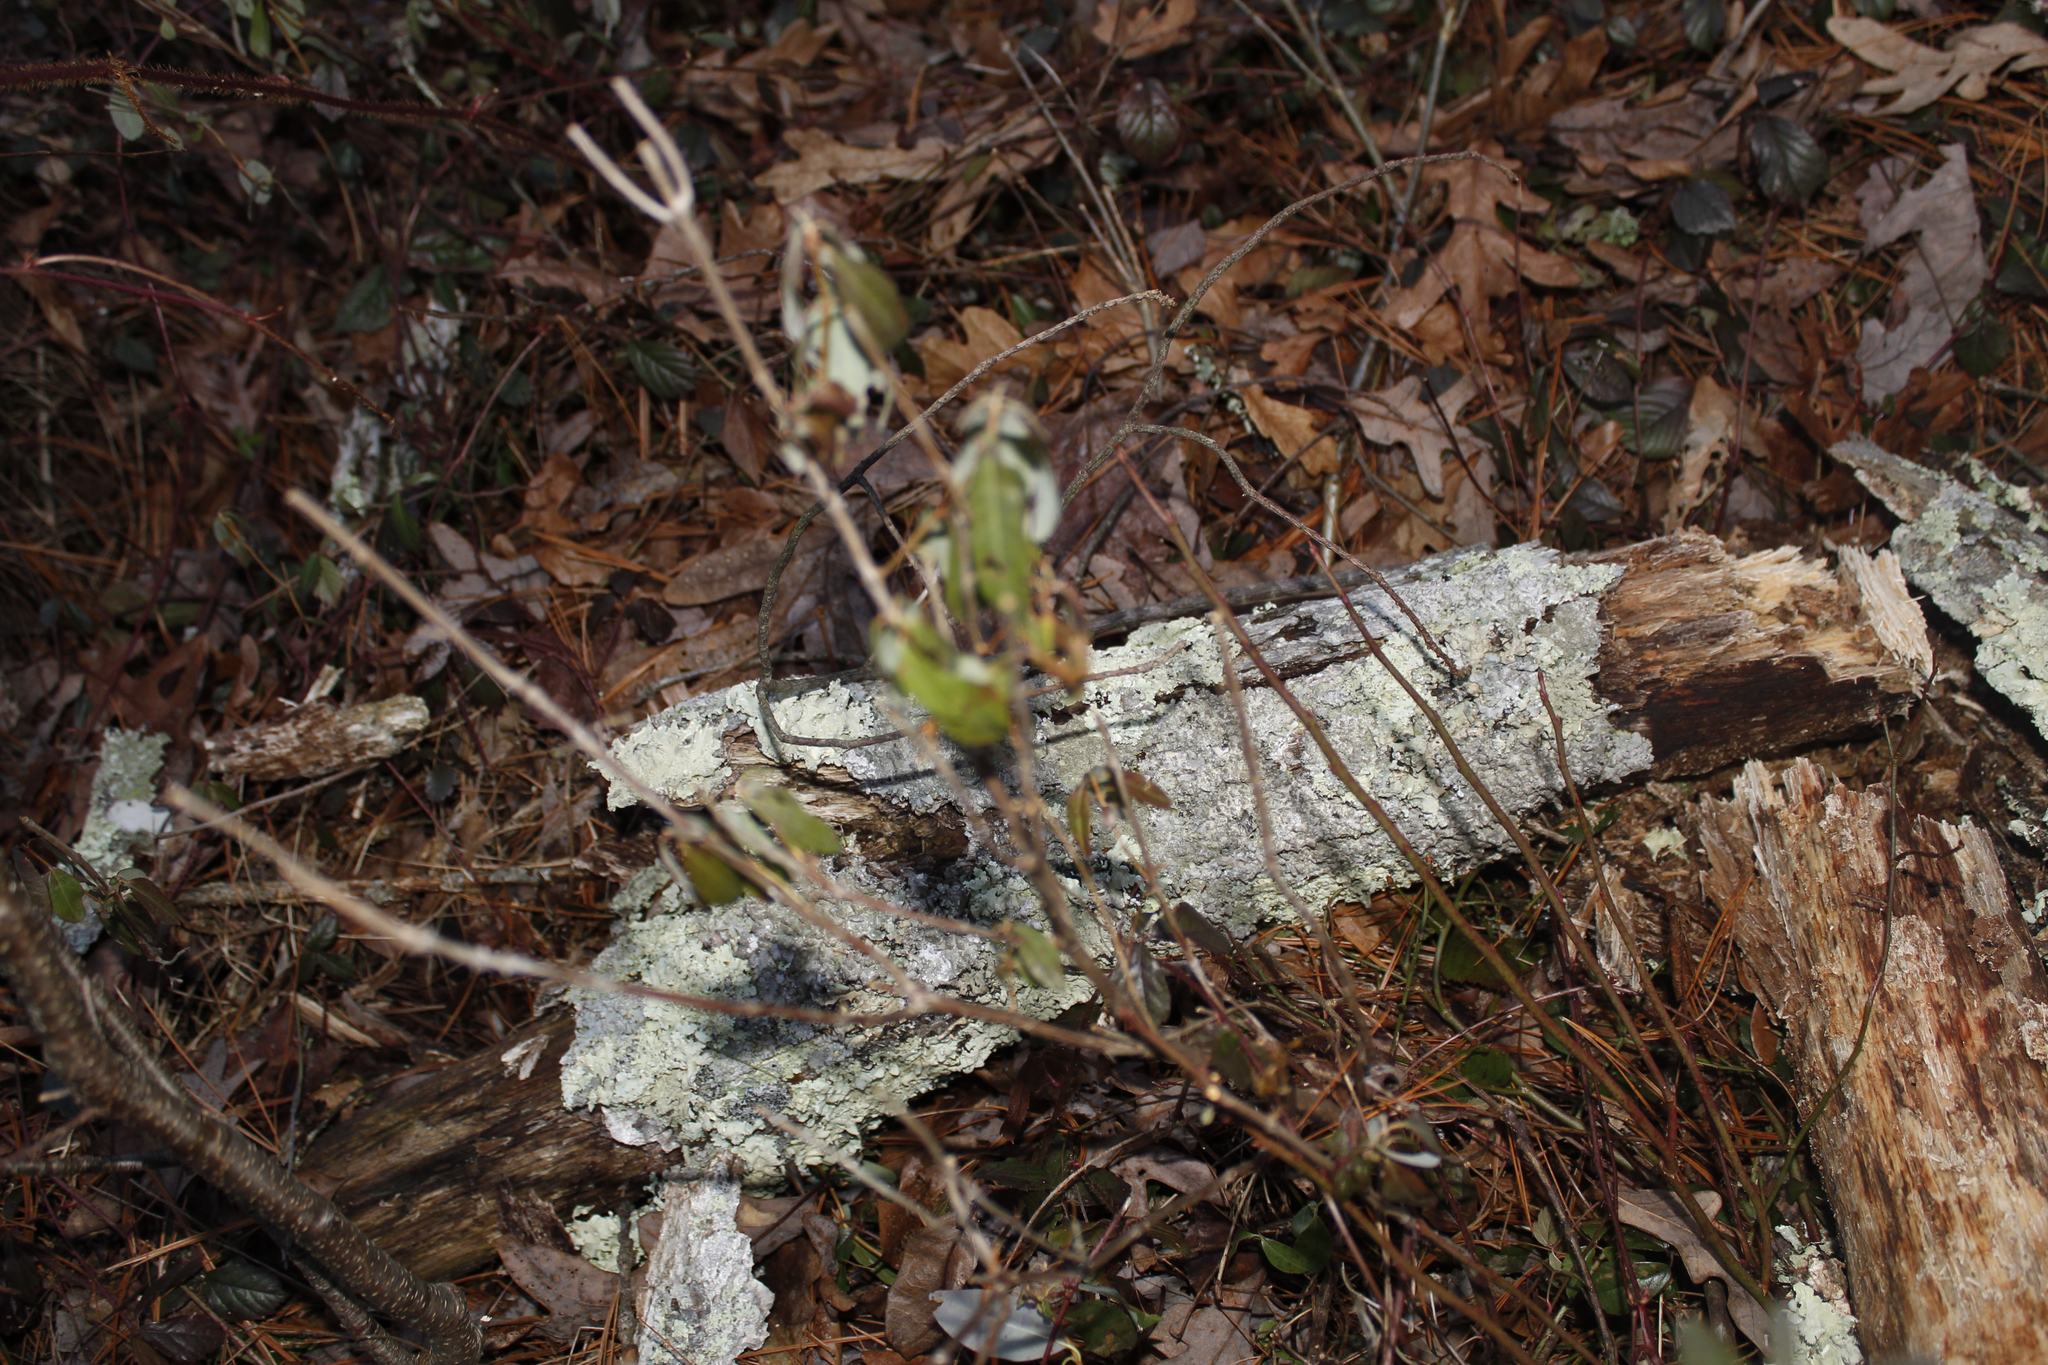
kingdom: Plantae
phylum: Tracheophyta
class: Magnoliopsida
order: Ericales
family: Ericaceae
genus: Kalmia
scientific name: Kalmia angustifolia
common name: Sheep-laurel
